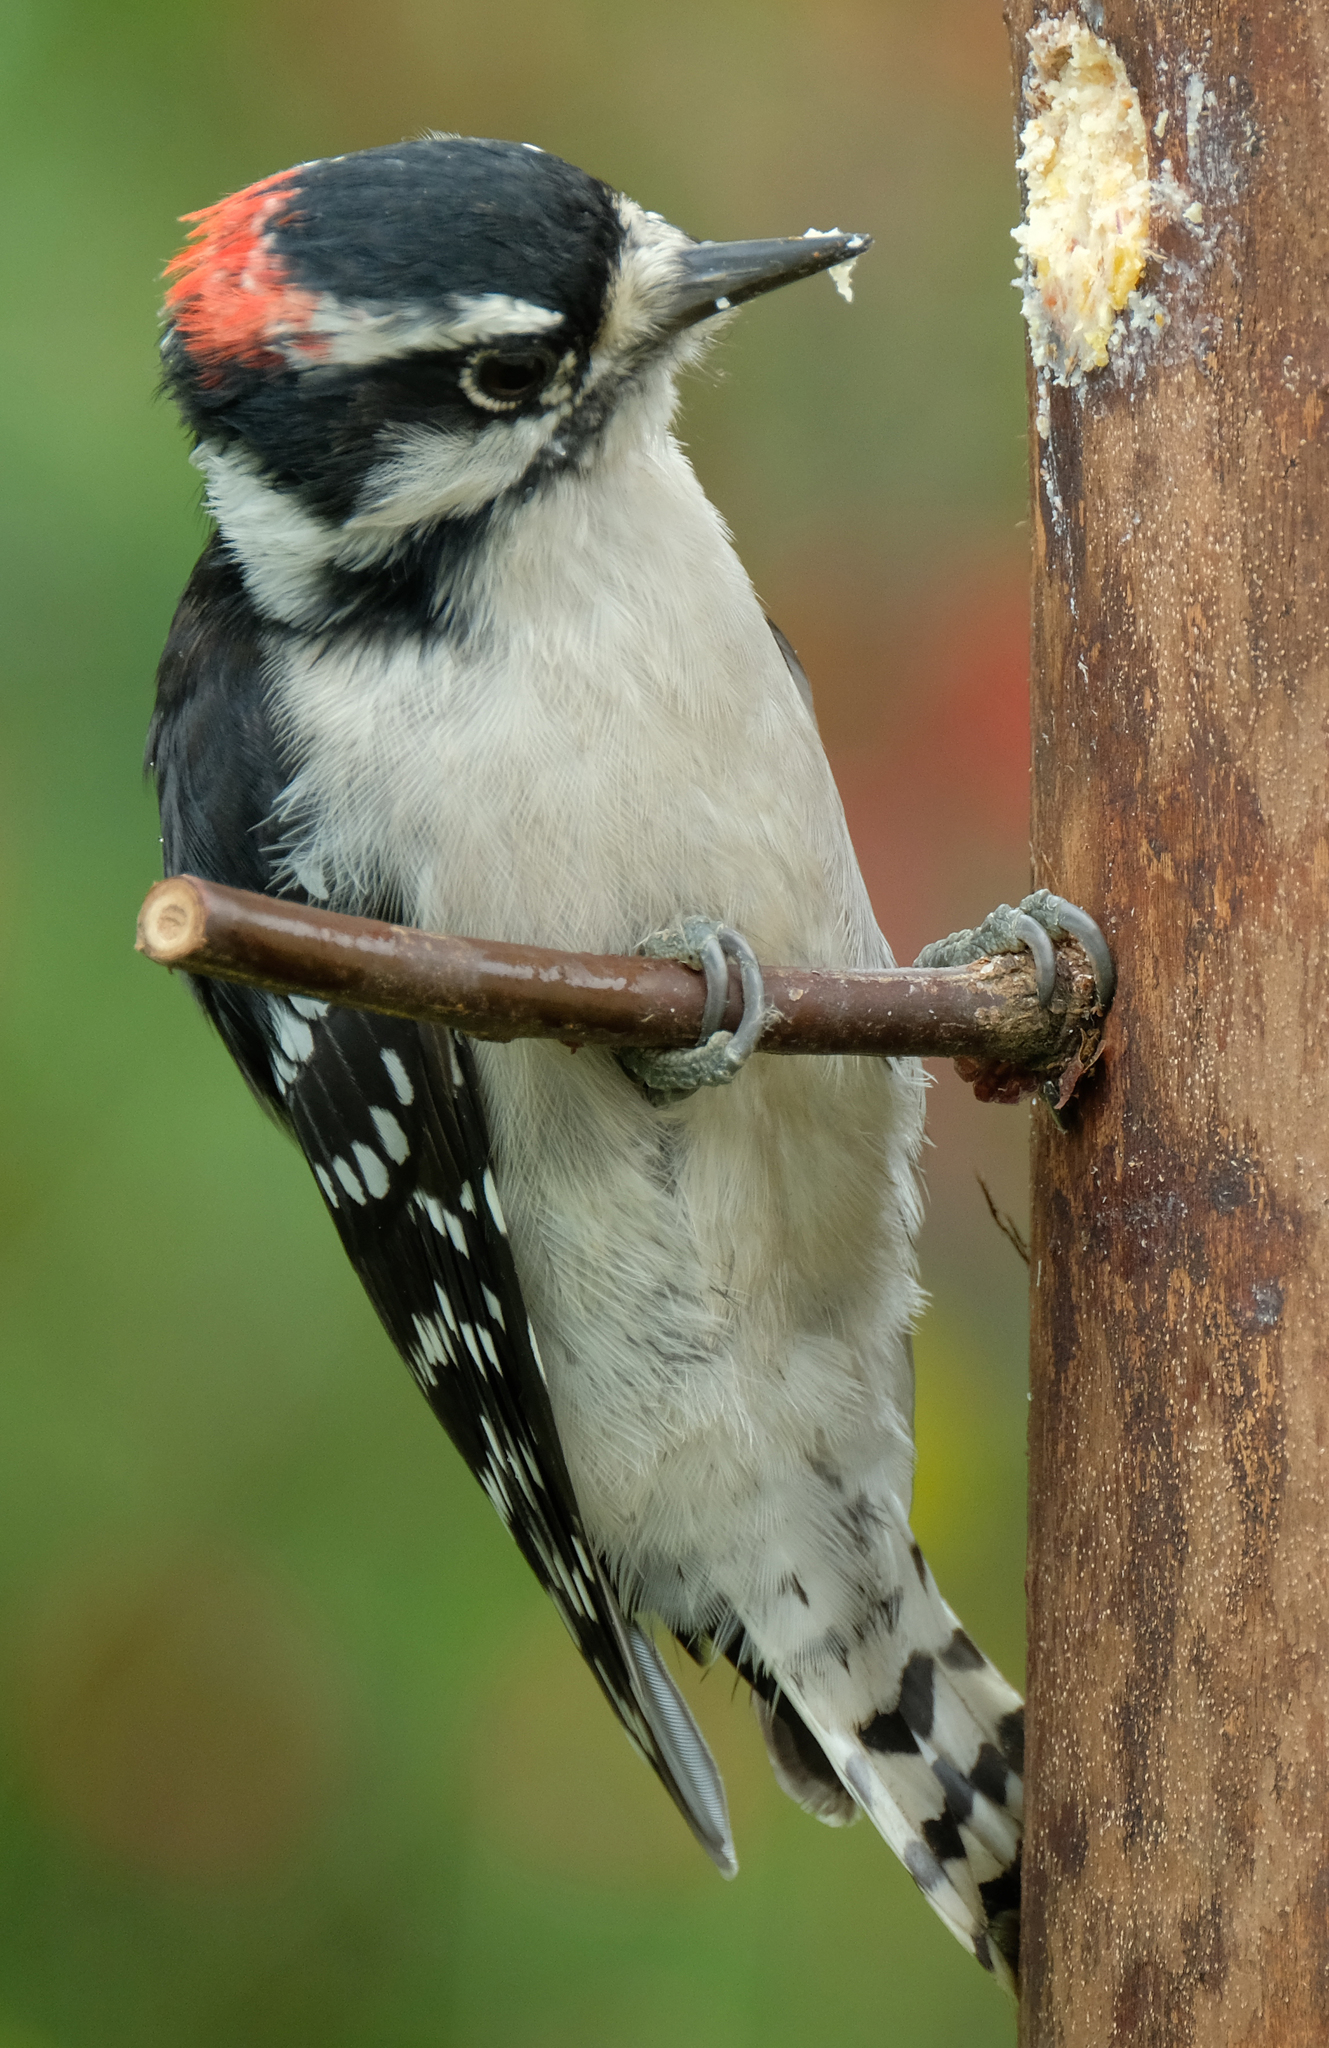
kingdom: Animalia
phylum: Chordata
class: Aves
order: Piciformes
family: Picidae
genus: Dryobates
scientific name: Dryobates pubescens
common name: Downy woodpecker
